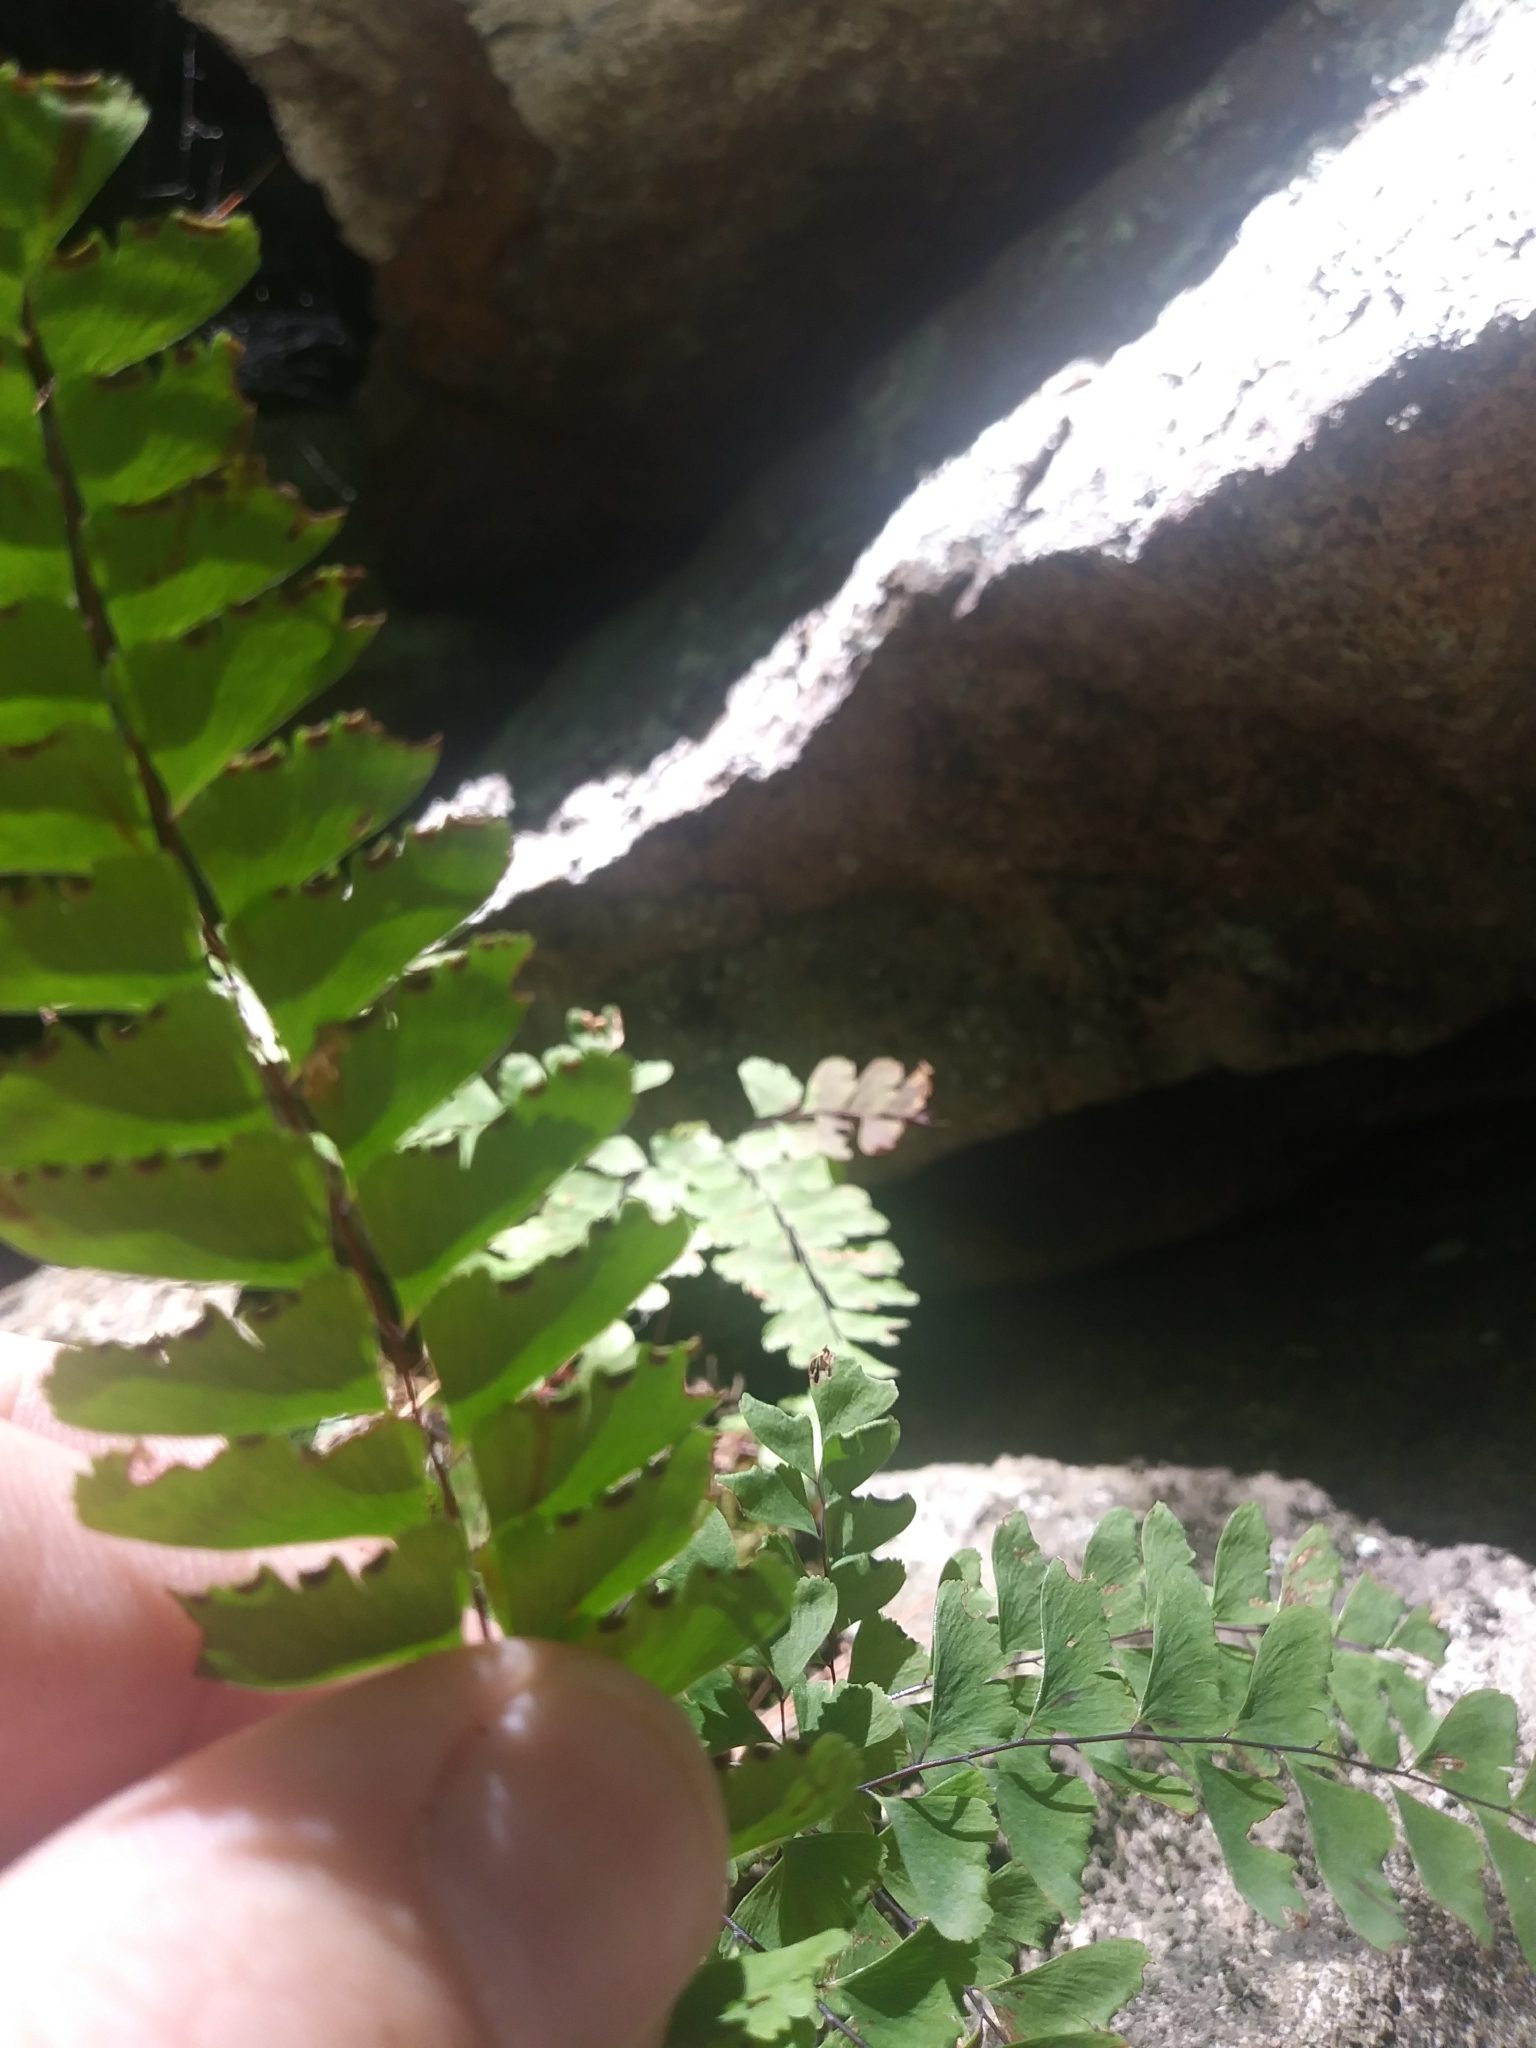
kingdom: Plantae
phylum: Tracheophyta
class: Polypodiopsida
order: Polypodiales
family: Pteridaceae
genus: Adiantum
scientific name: Adiantum aleuticum
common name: Aleutian maidenhair fern
